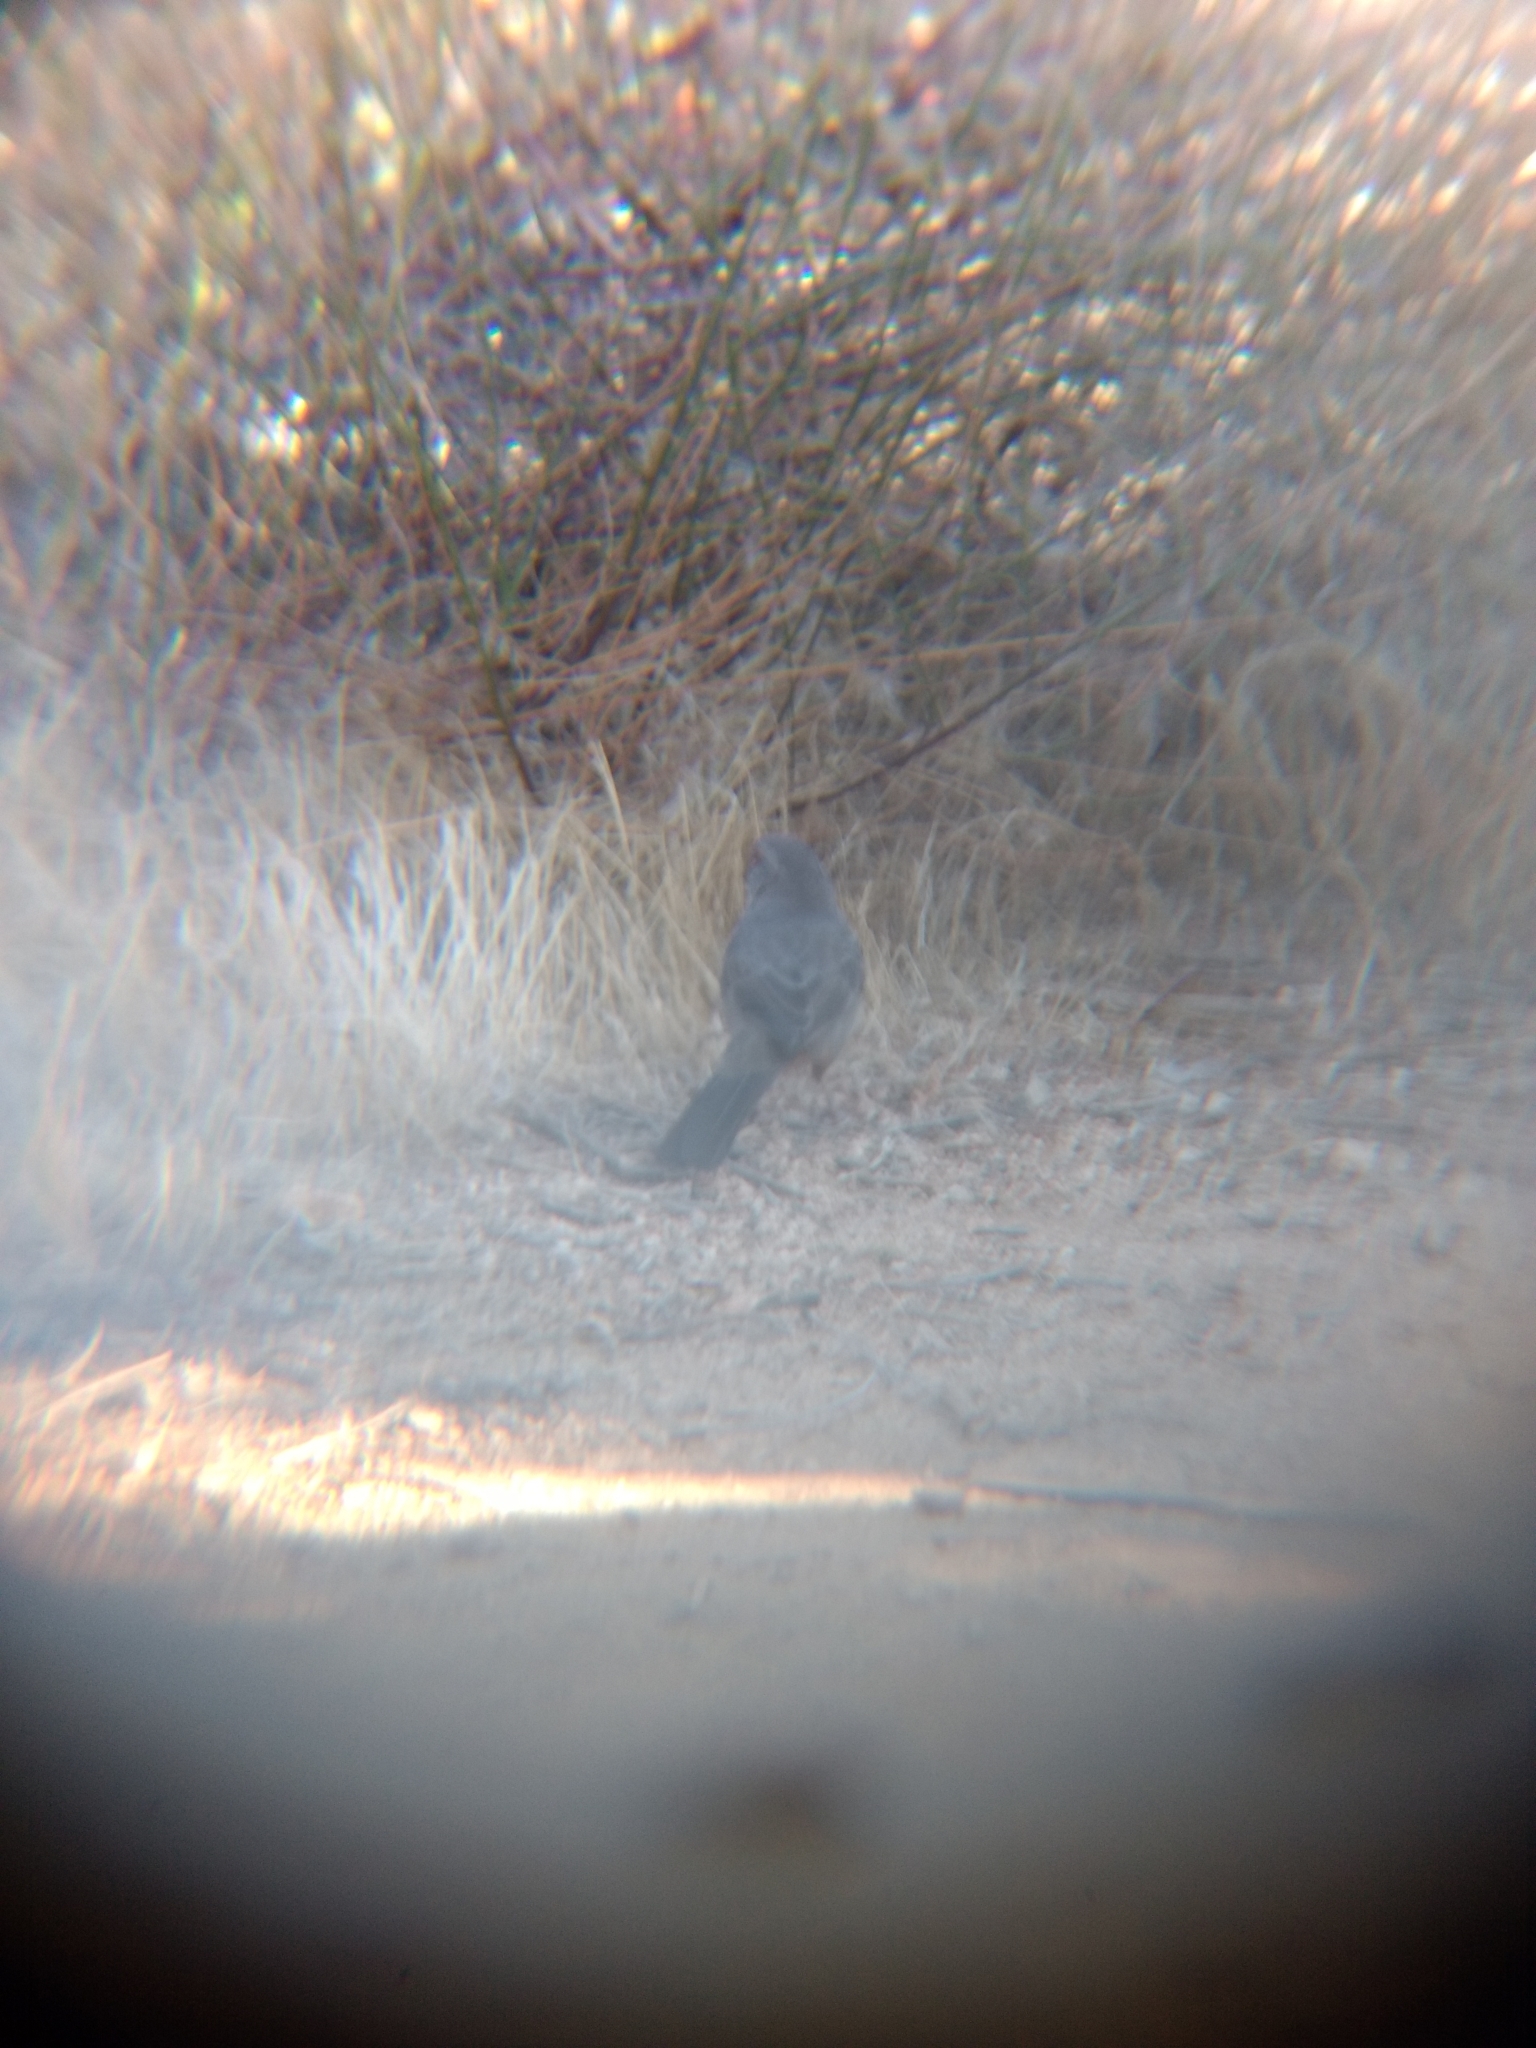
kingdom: Animalia
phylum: Chordata
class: Aves
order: Passeriformes
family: Passerellidae
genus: Melozone
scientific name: Melozone crissalis
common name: California towhee
